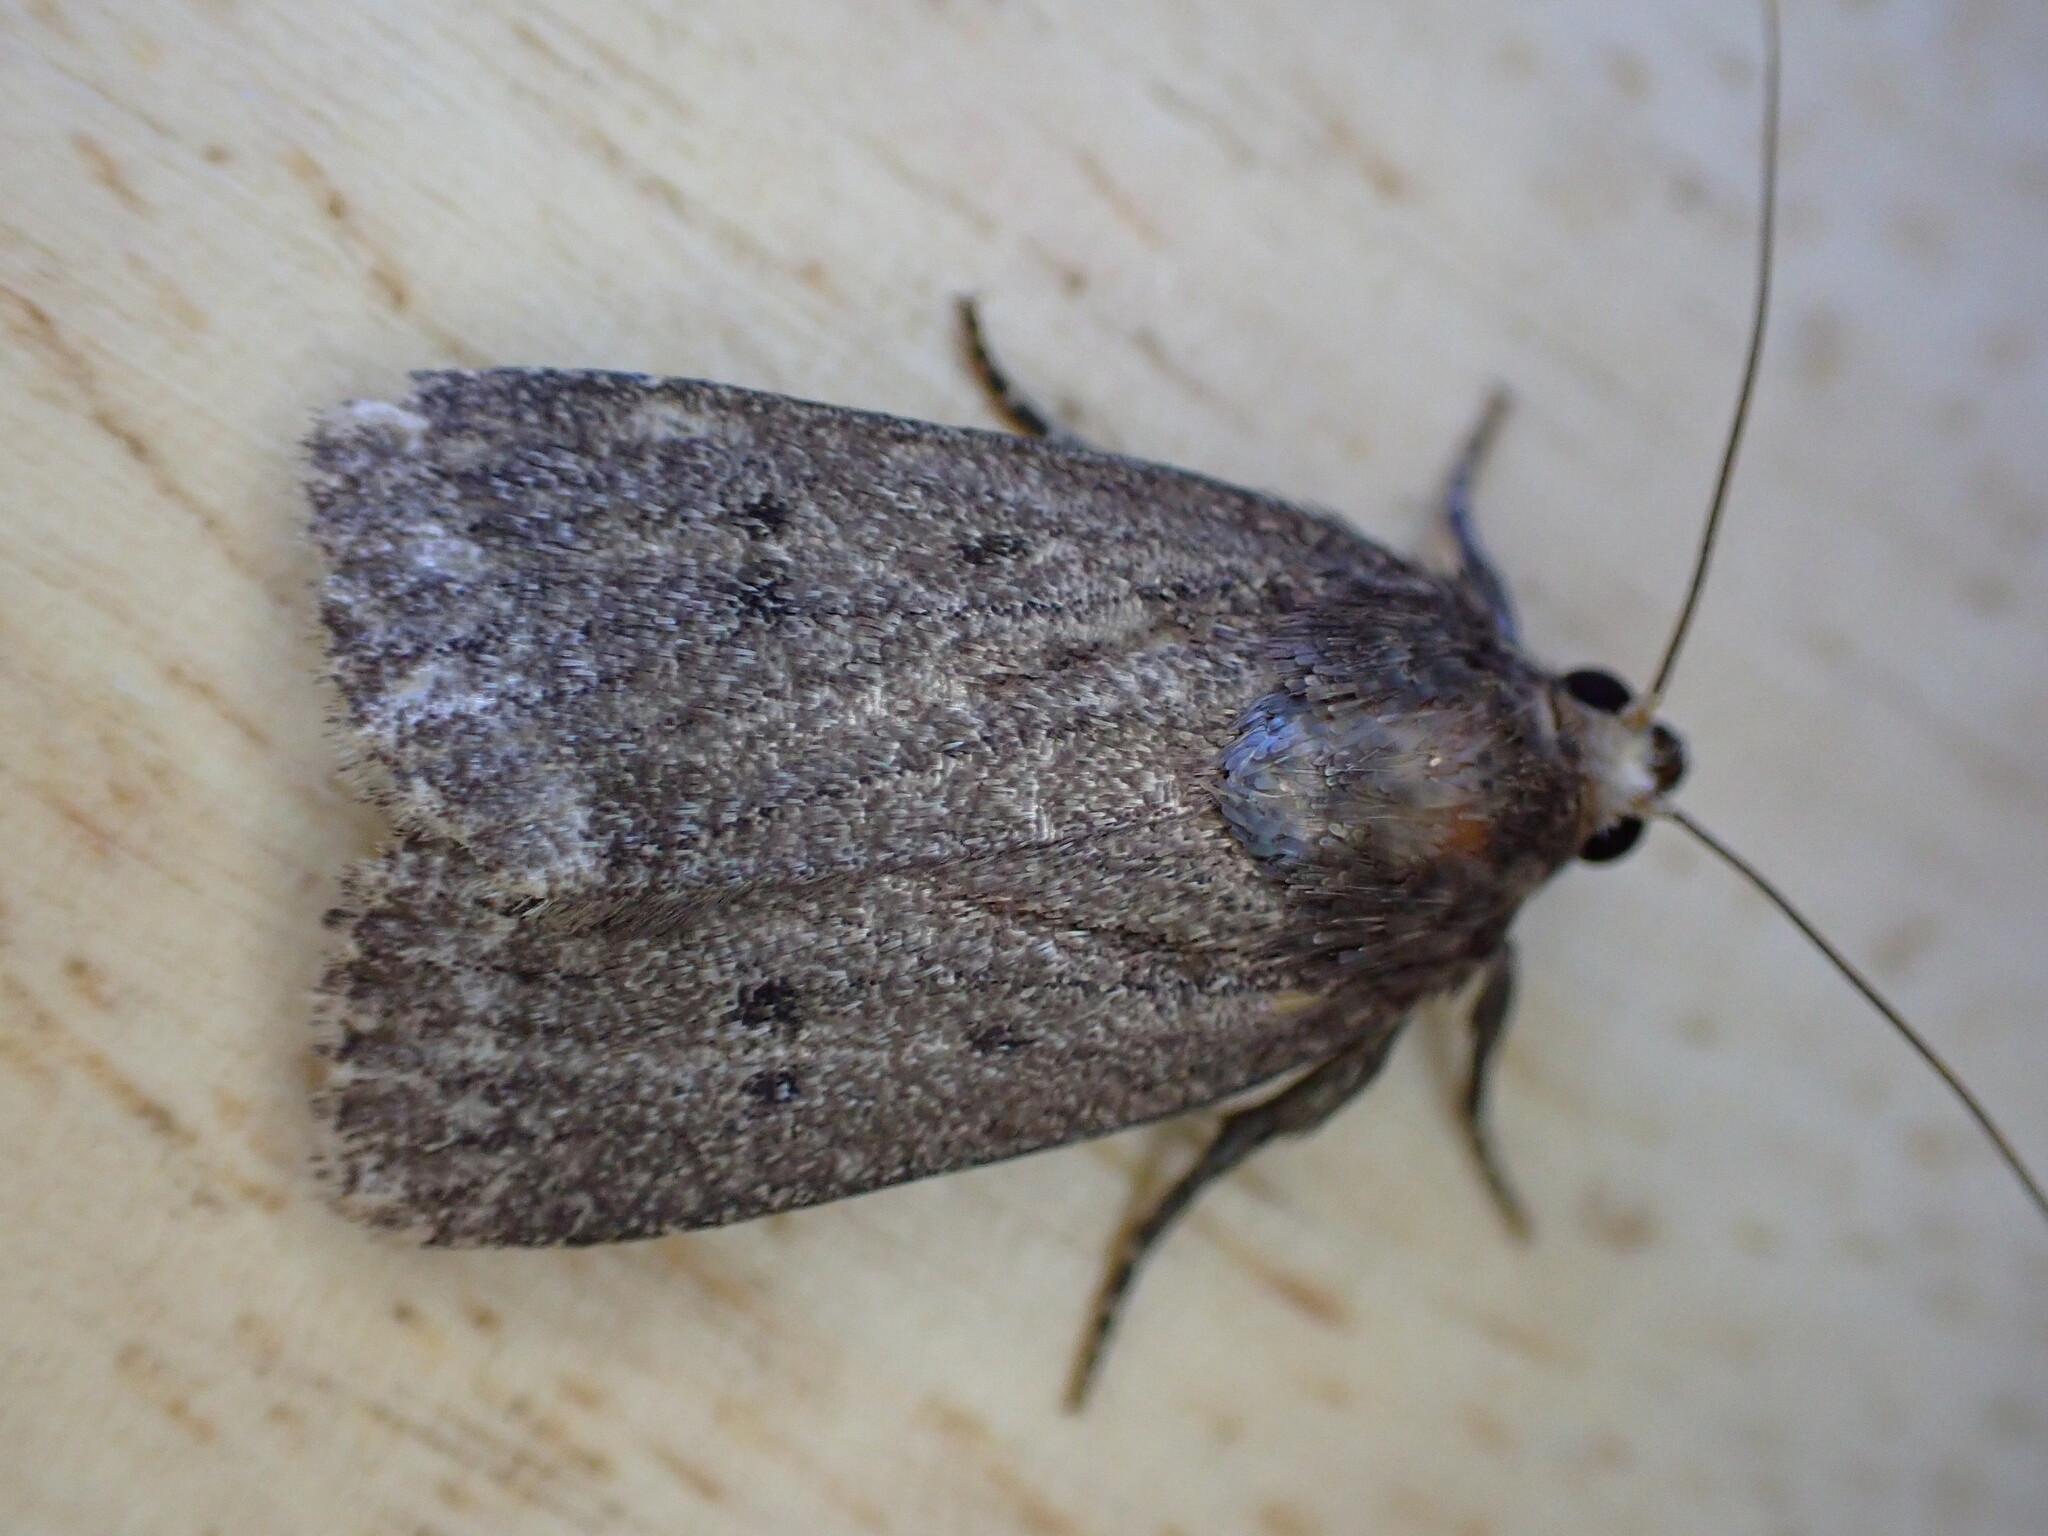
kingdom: Animalia
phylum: Arthropoda
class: Insecta
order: Lepidoptera
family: Noctuidae
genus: Amphipyra
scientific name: Amphipyra tragopoginis
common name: Mouse moth
